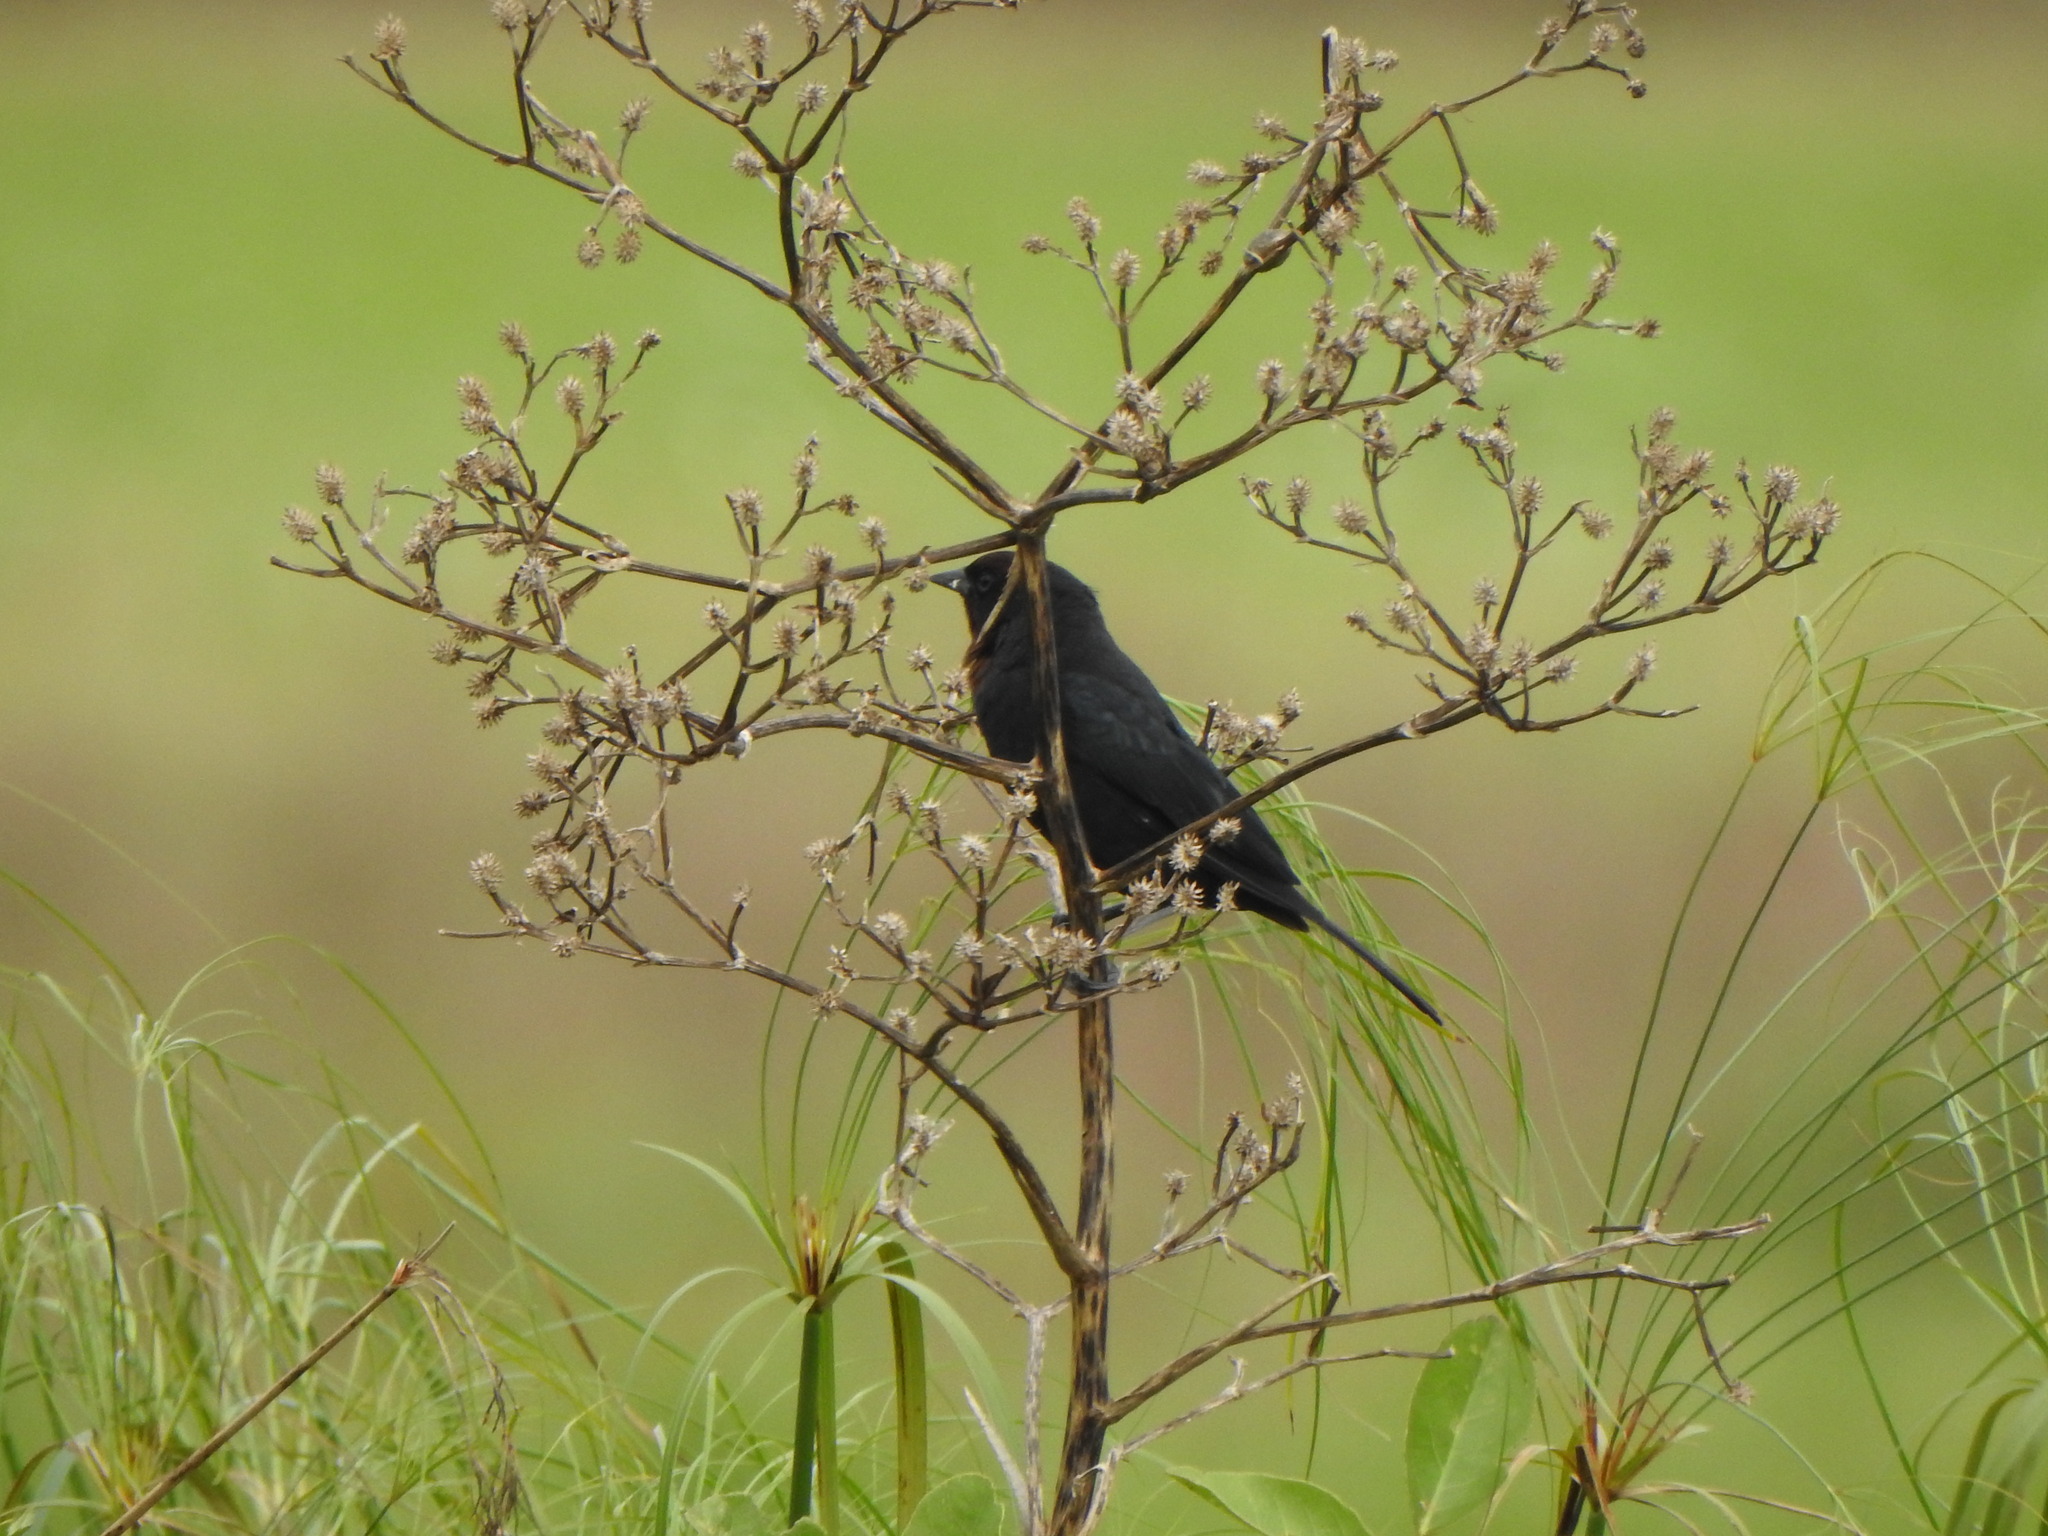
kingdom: Animalia
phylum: Chordata
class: Aves
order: Passeriformes
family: Icteridae
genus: Chrysomus
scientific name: Chrysomus ruficapillus
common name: Chestnut-capped blackbird
